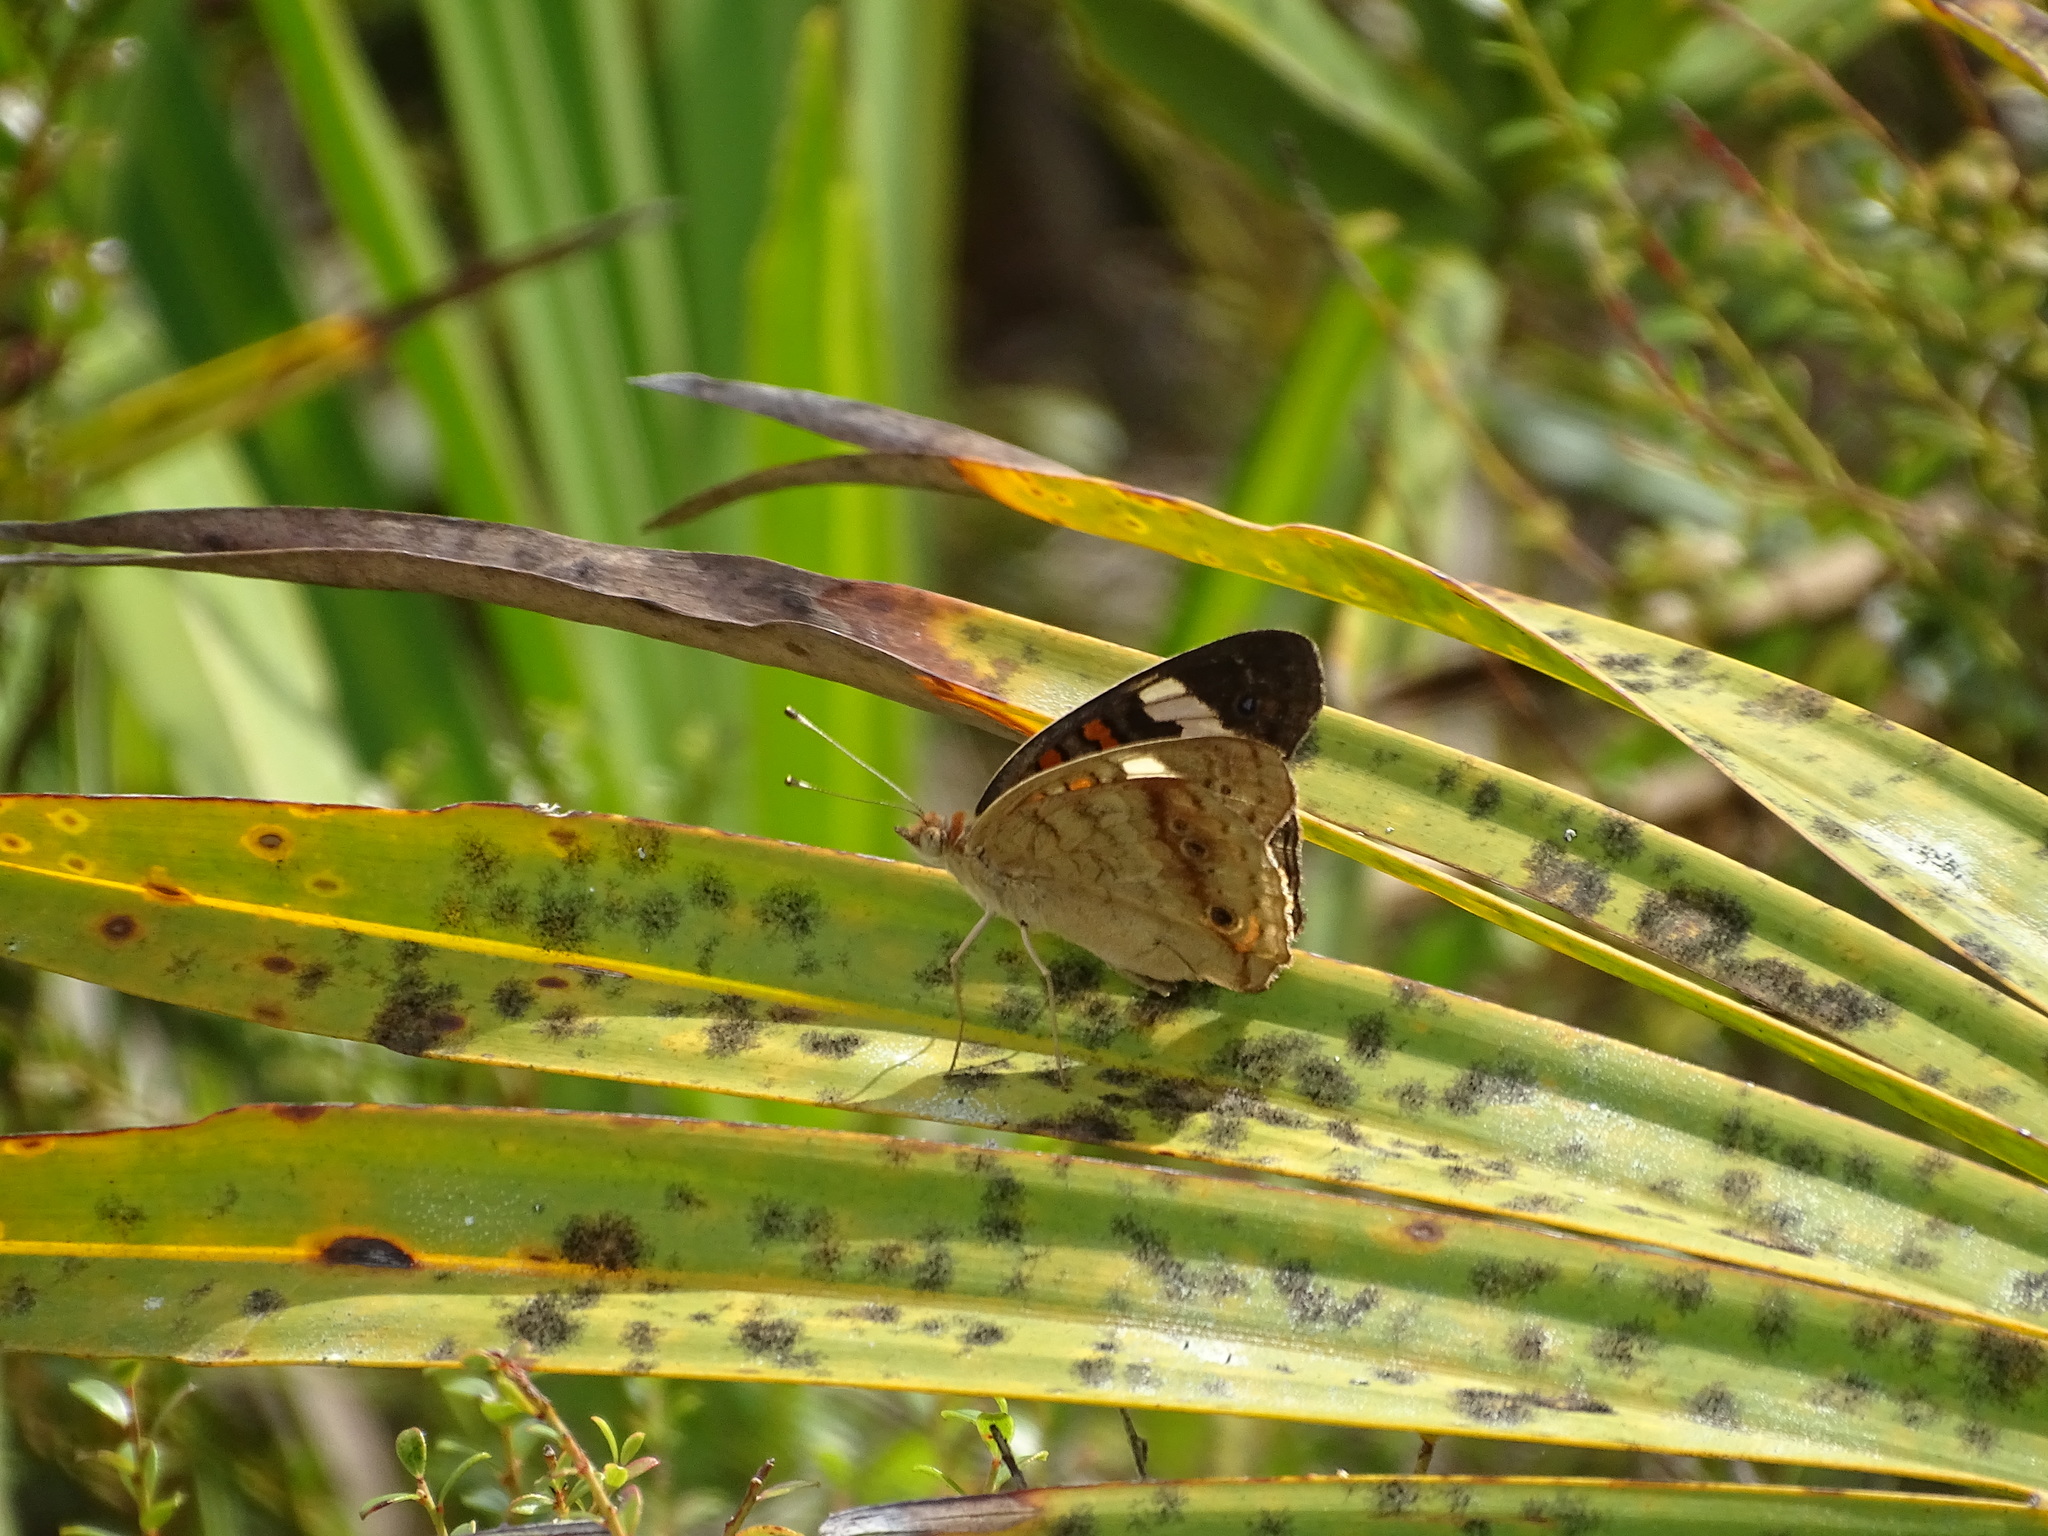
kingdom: Animalia
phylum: Arthropoda
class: Insecta
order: Lepidoptera
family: Nymphalidae
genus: Junonia
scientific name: Junonia coenia
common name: Common buckeye
